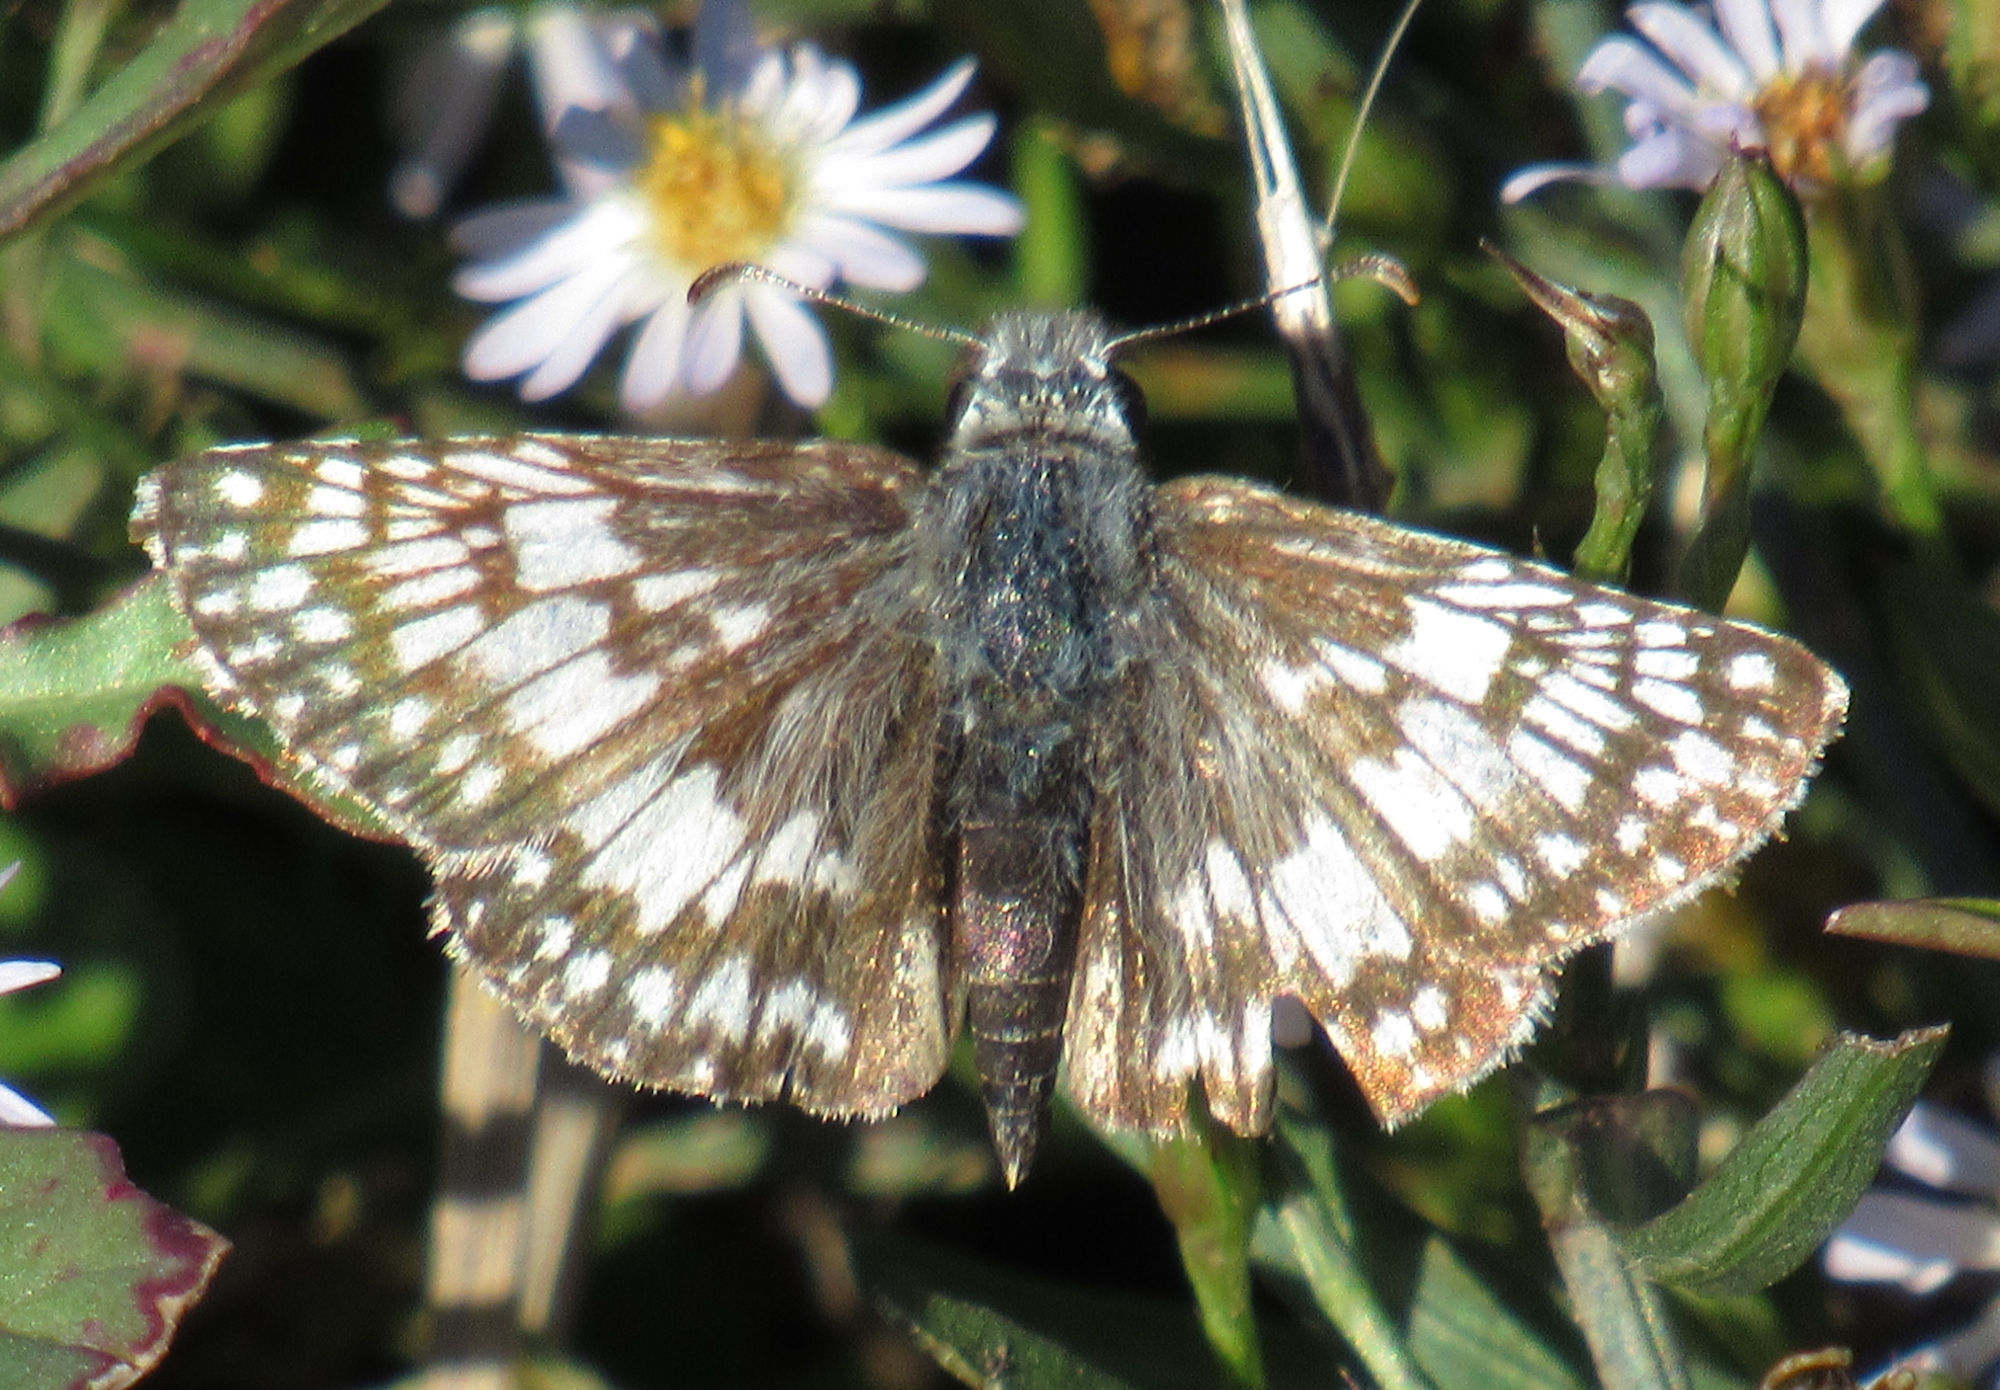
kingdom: Animalia
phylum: Arthropoda
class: Insecta
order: Lepidoptera
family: Hesperiidae
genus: Burnsius
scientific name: Burnsius
